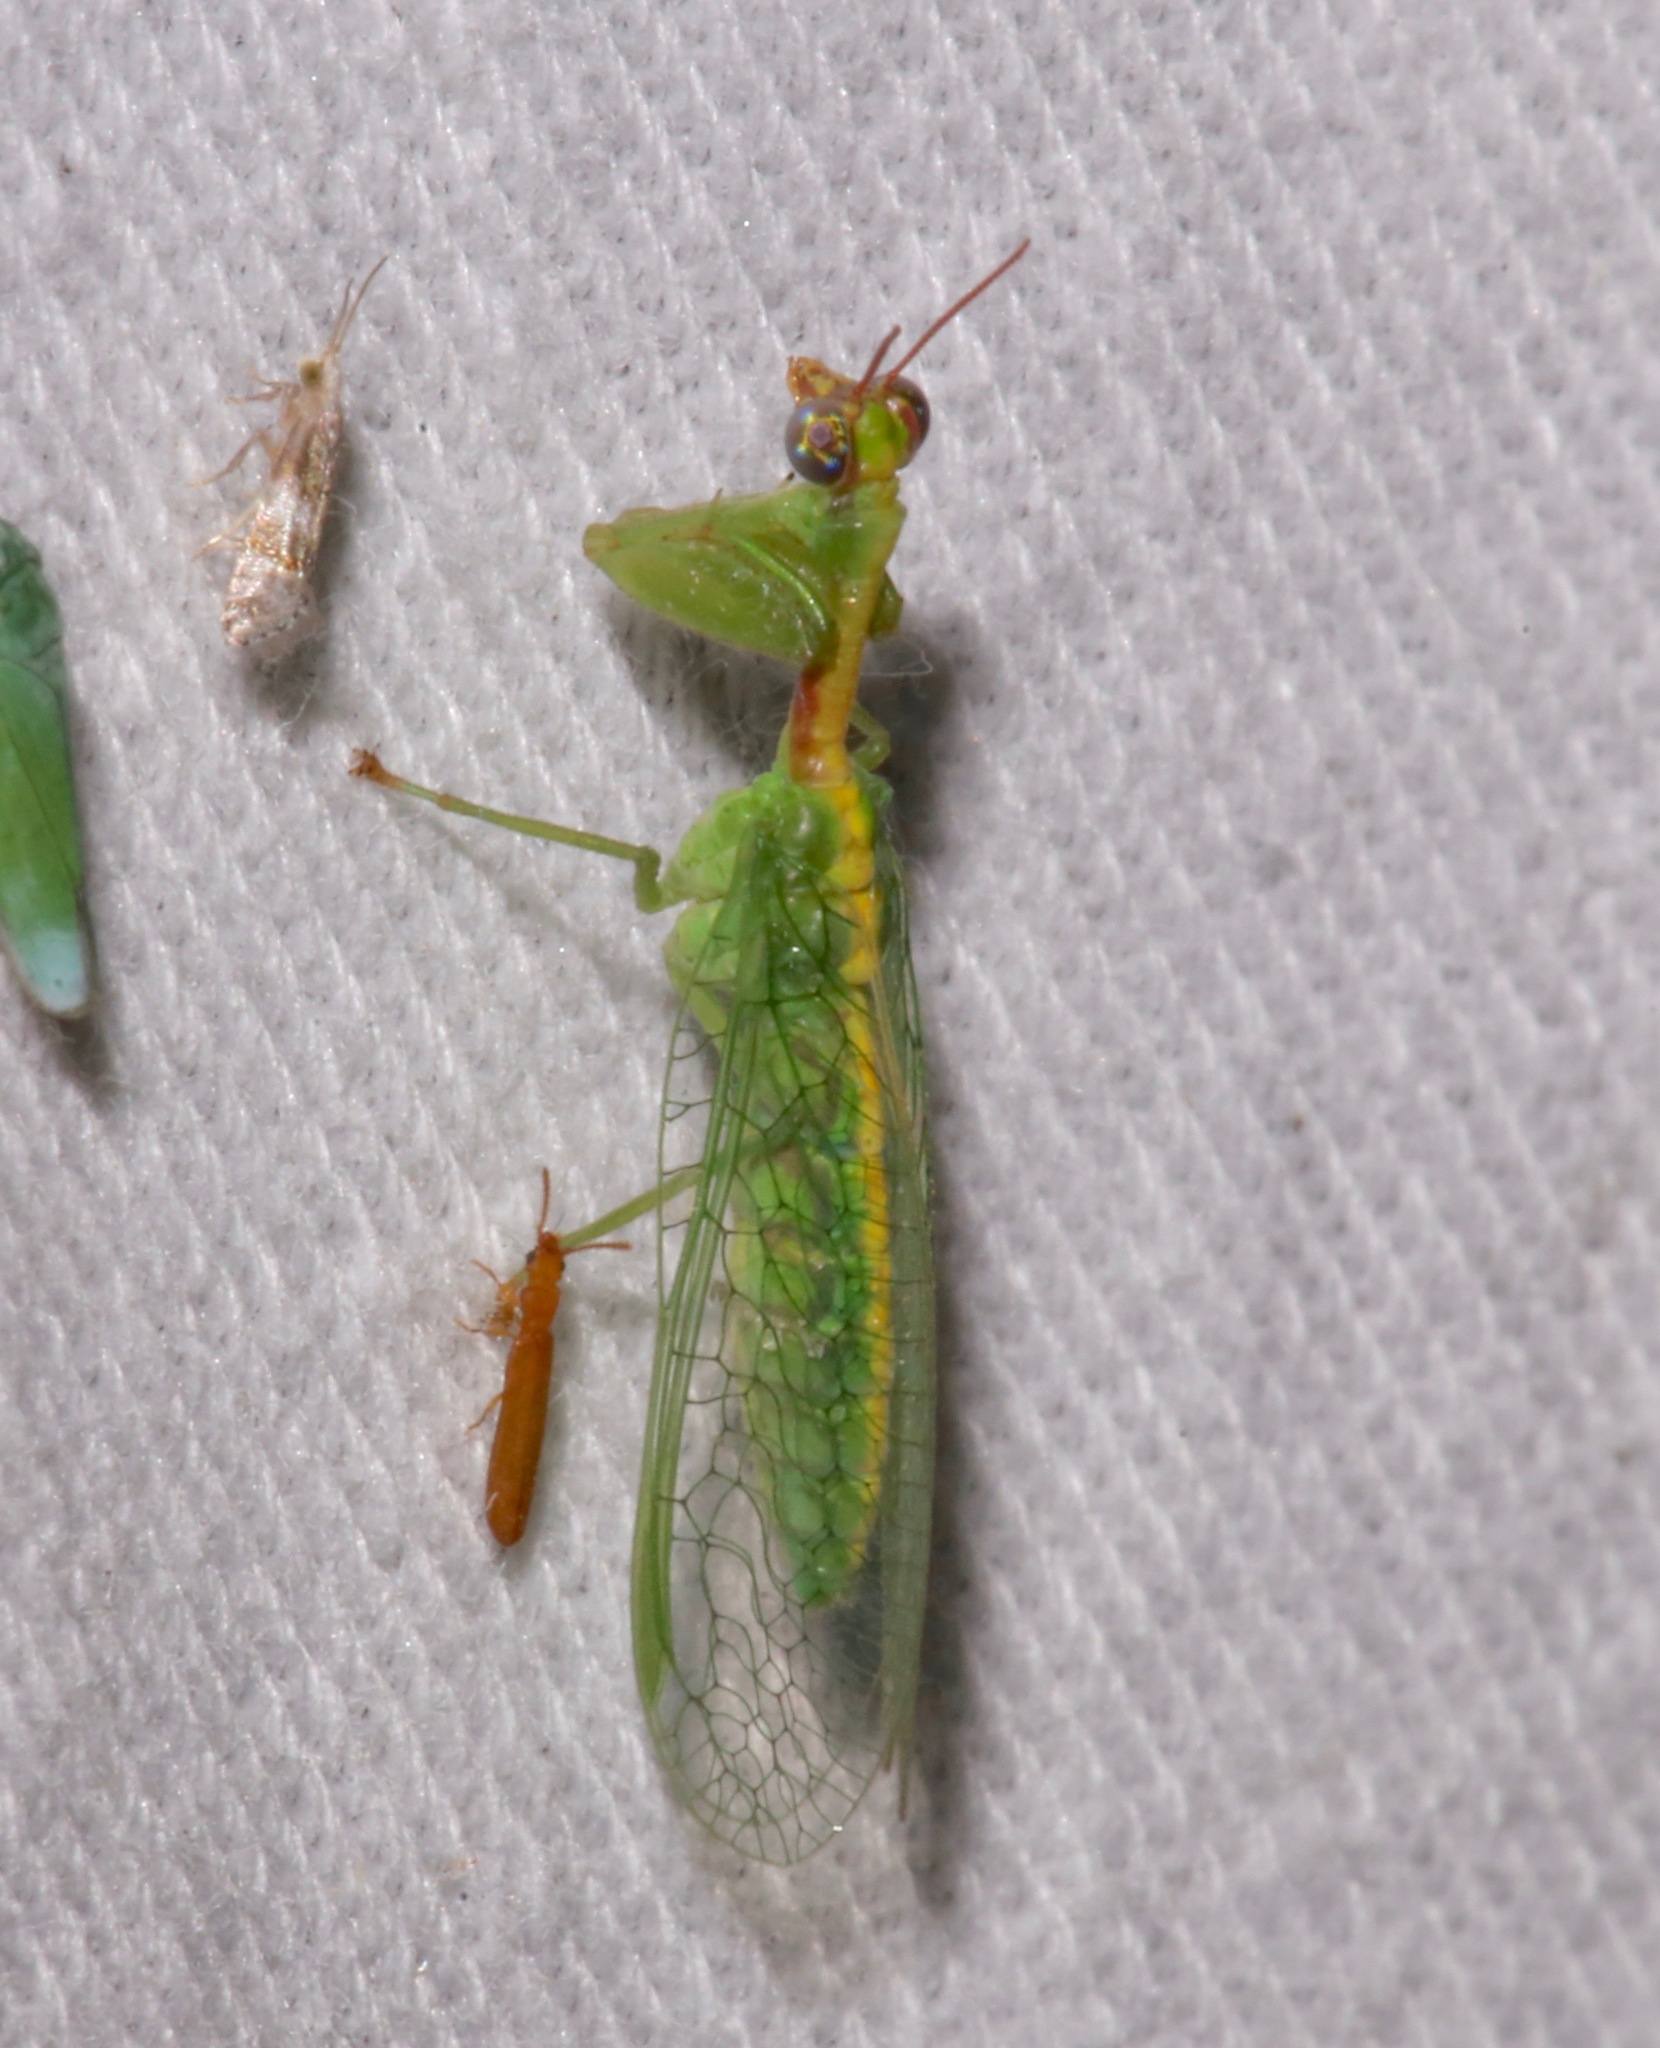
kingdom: Animalia
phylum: Arthropoda
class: Insecta
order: Neuroptera
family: Mantispidae
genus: Zeugomantispa
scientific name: Zeugomantispa minuta
